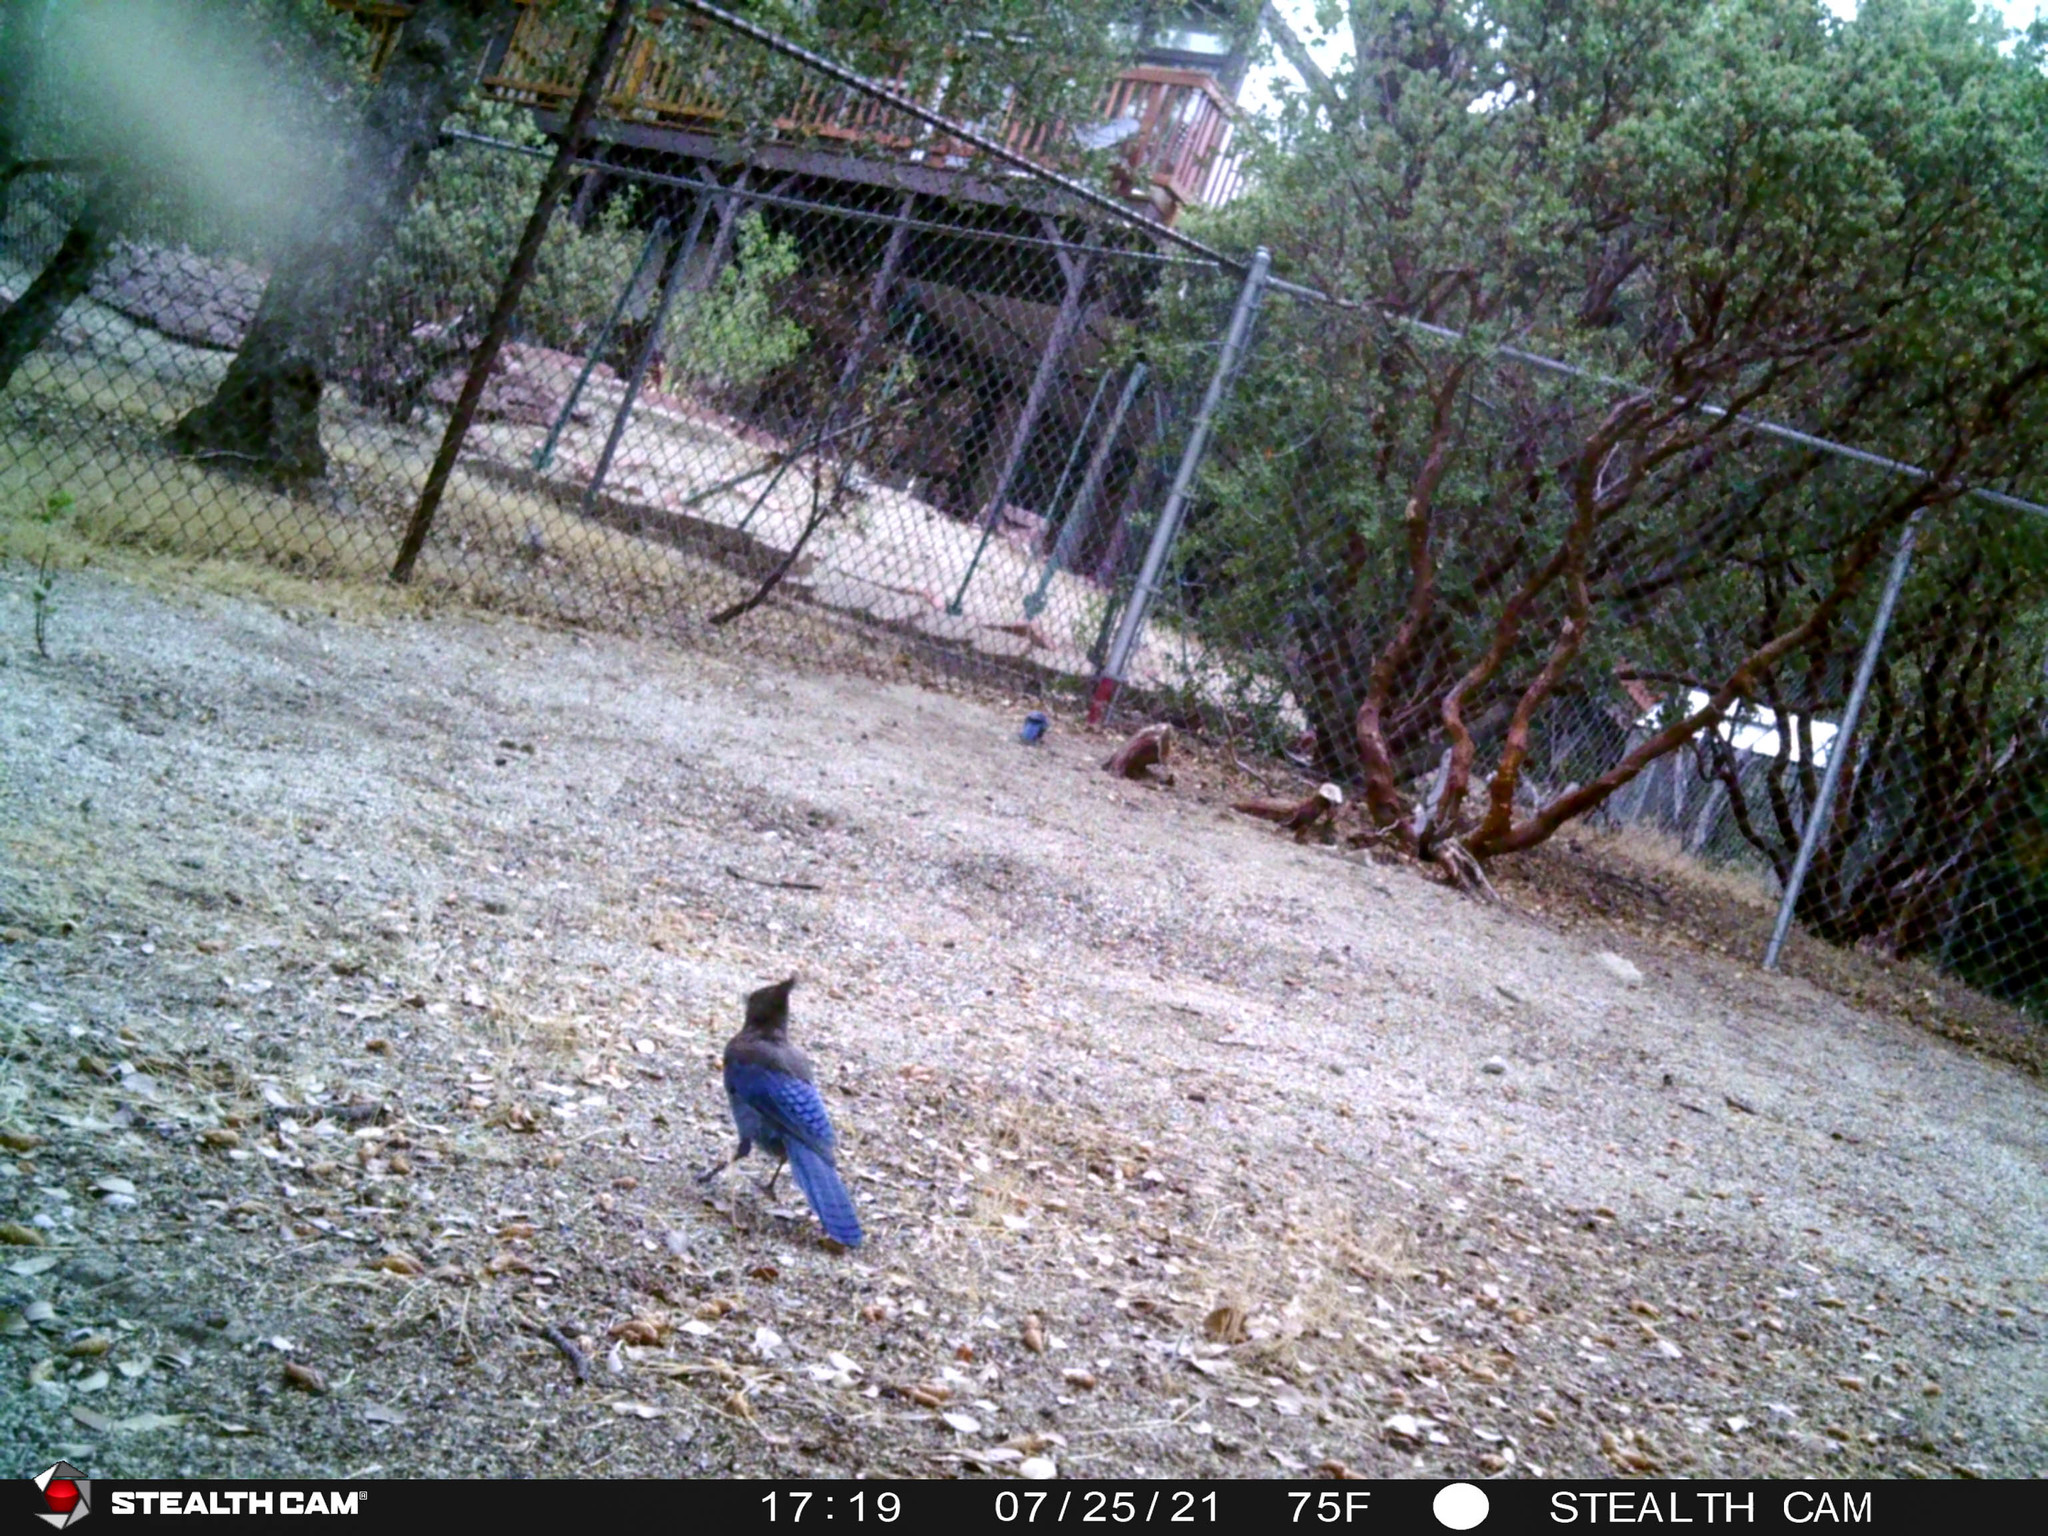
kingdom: Animalia
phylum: Chordata
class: Aves
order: Passeriformes
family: Corvidae
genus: Cyanocitta
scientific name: Cyanocitta stelleri
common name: Steller's jay
